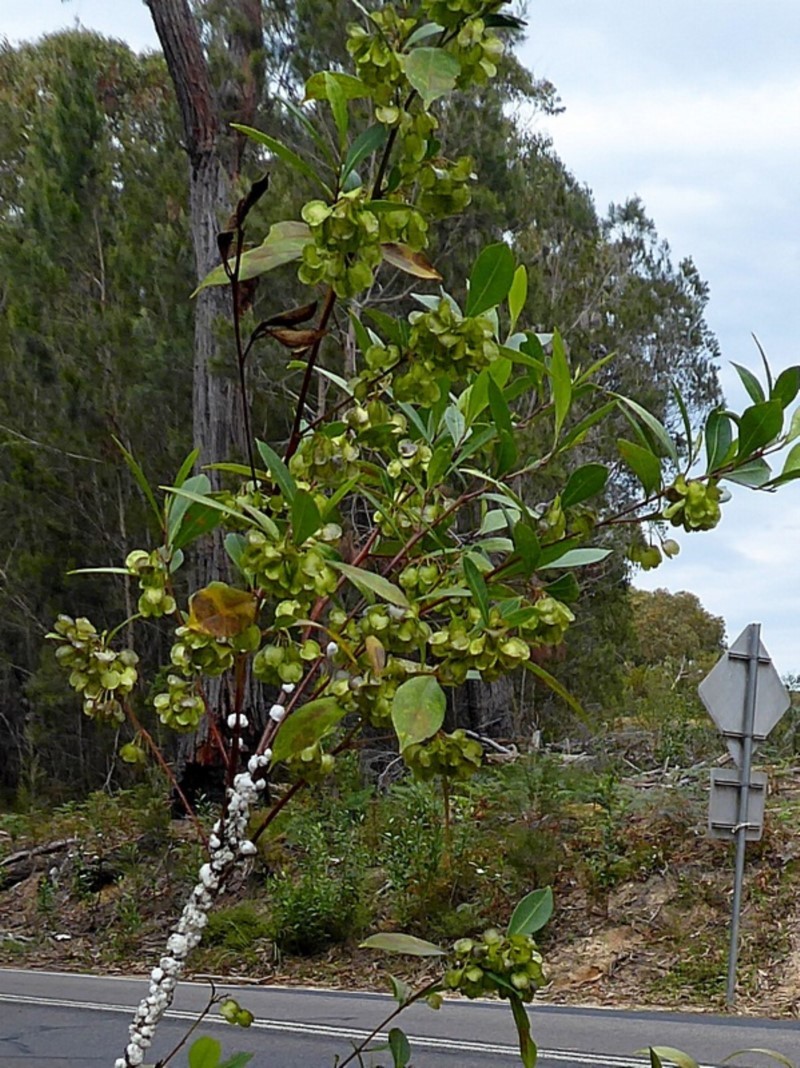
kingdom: Plantae
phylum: Tracheophyta
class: Magnoliopsida
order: Sapindales
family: Sapindaceae
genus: Dodonaea
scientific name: Dodonaea triquetra
